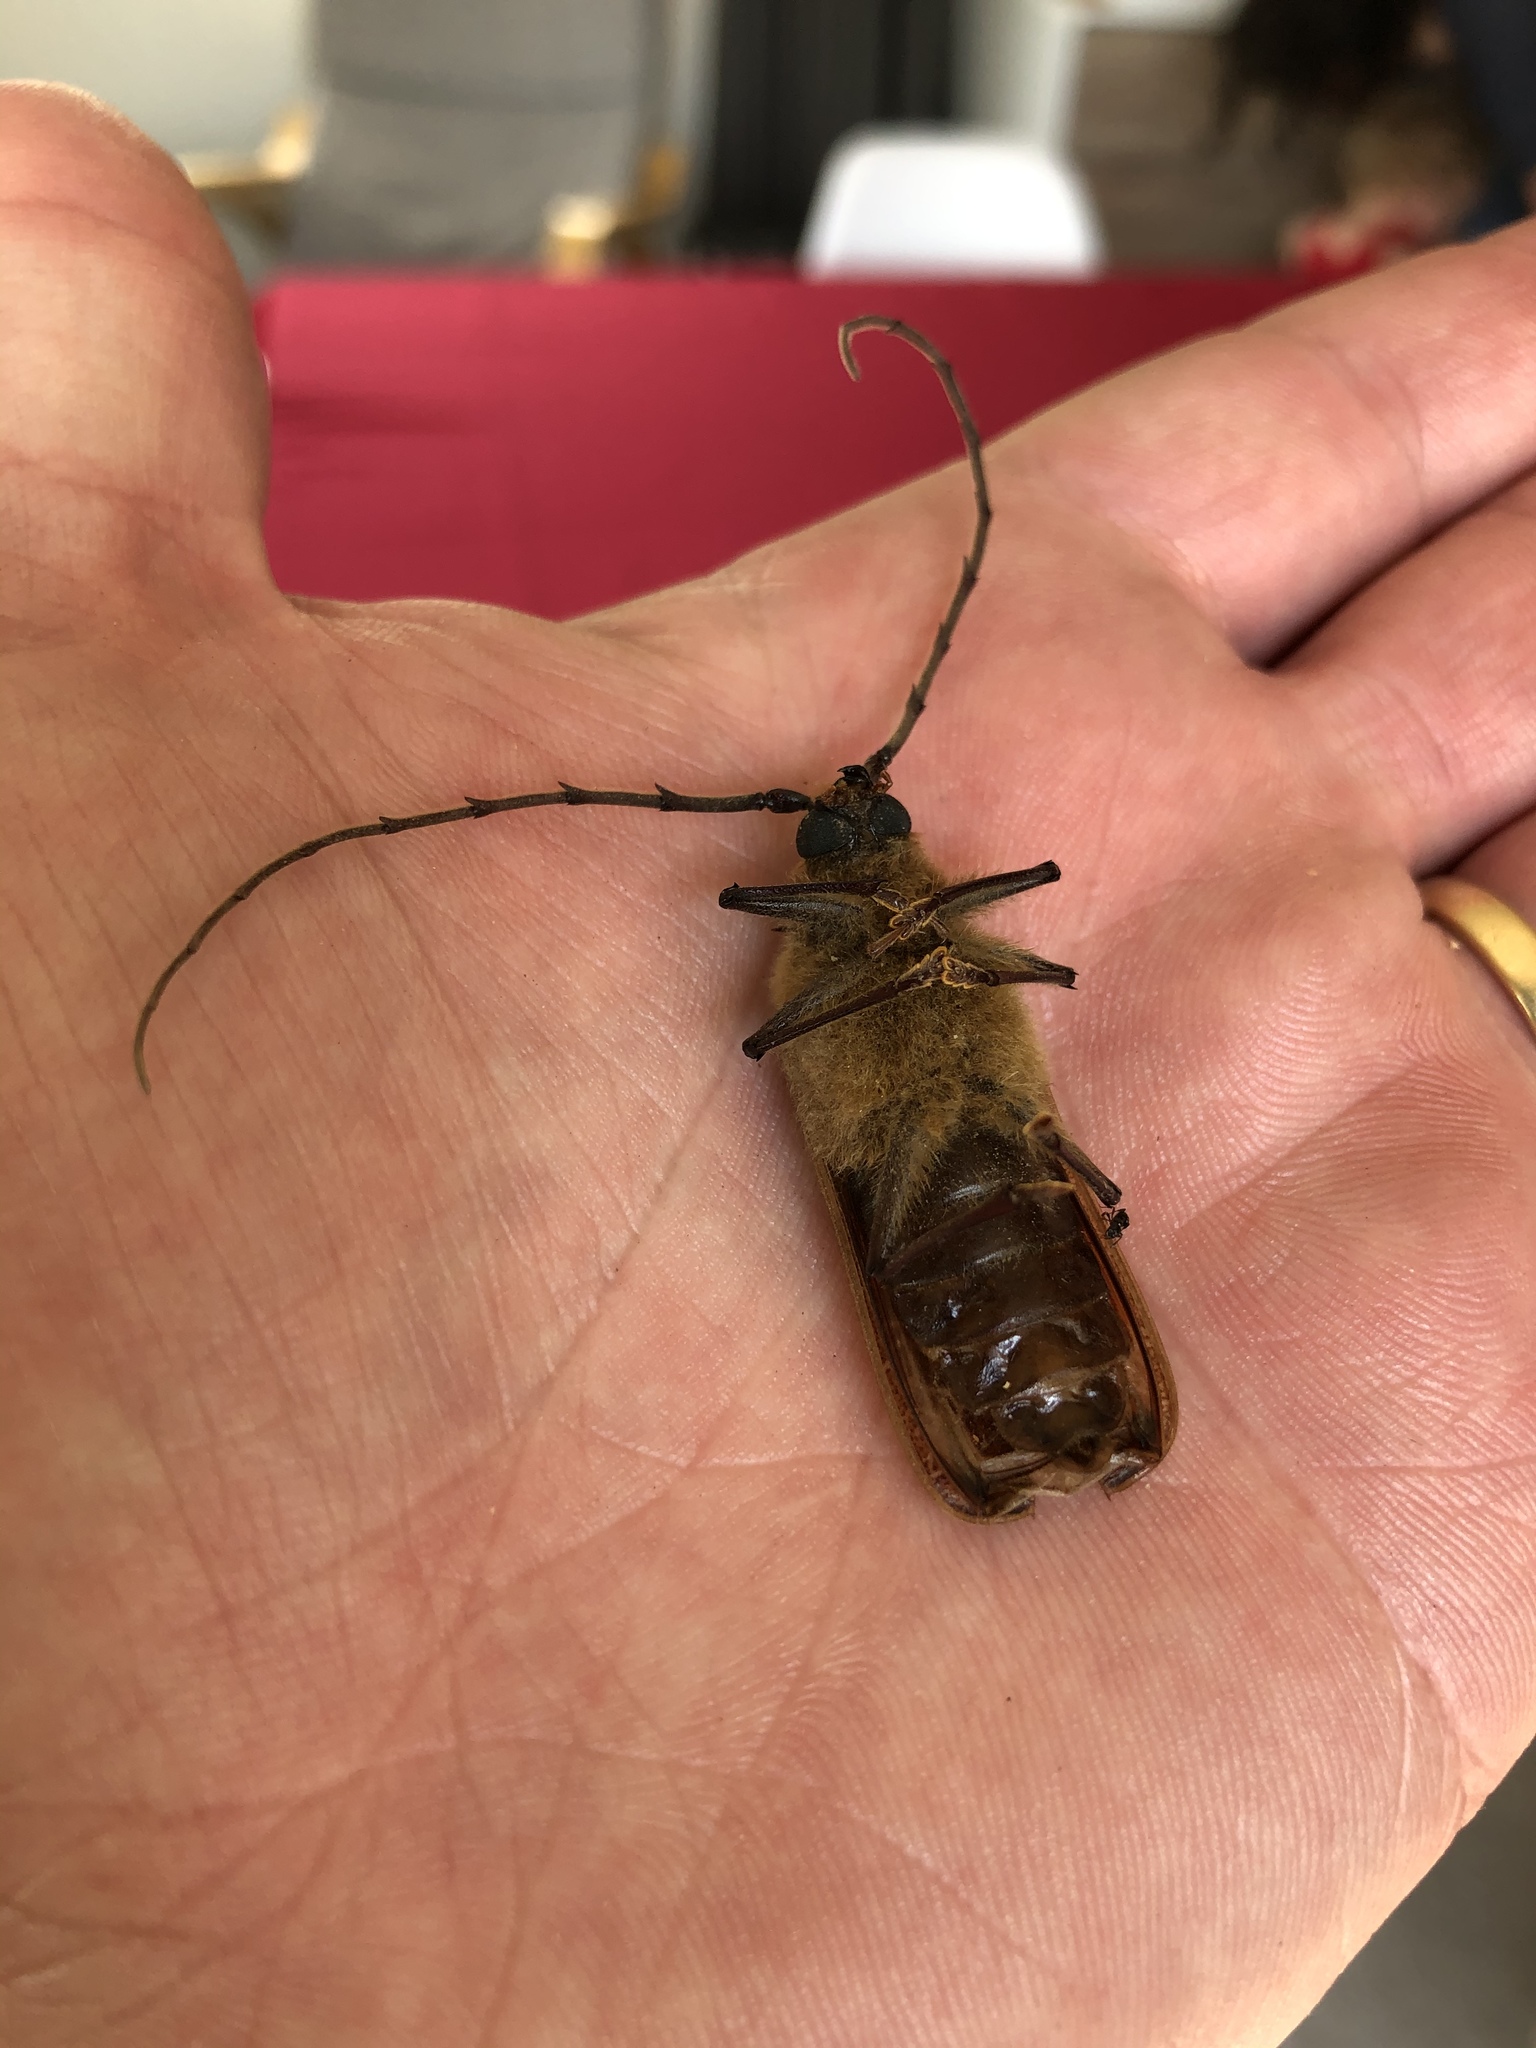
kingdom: Animalia
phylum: Arthropoda
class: Insecta
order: Coleoptera
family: Cerambycidae
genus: Prionoplus
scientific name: Prionoplus reticularis
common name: Huhu beetle
